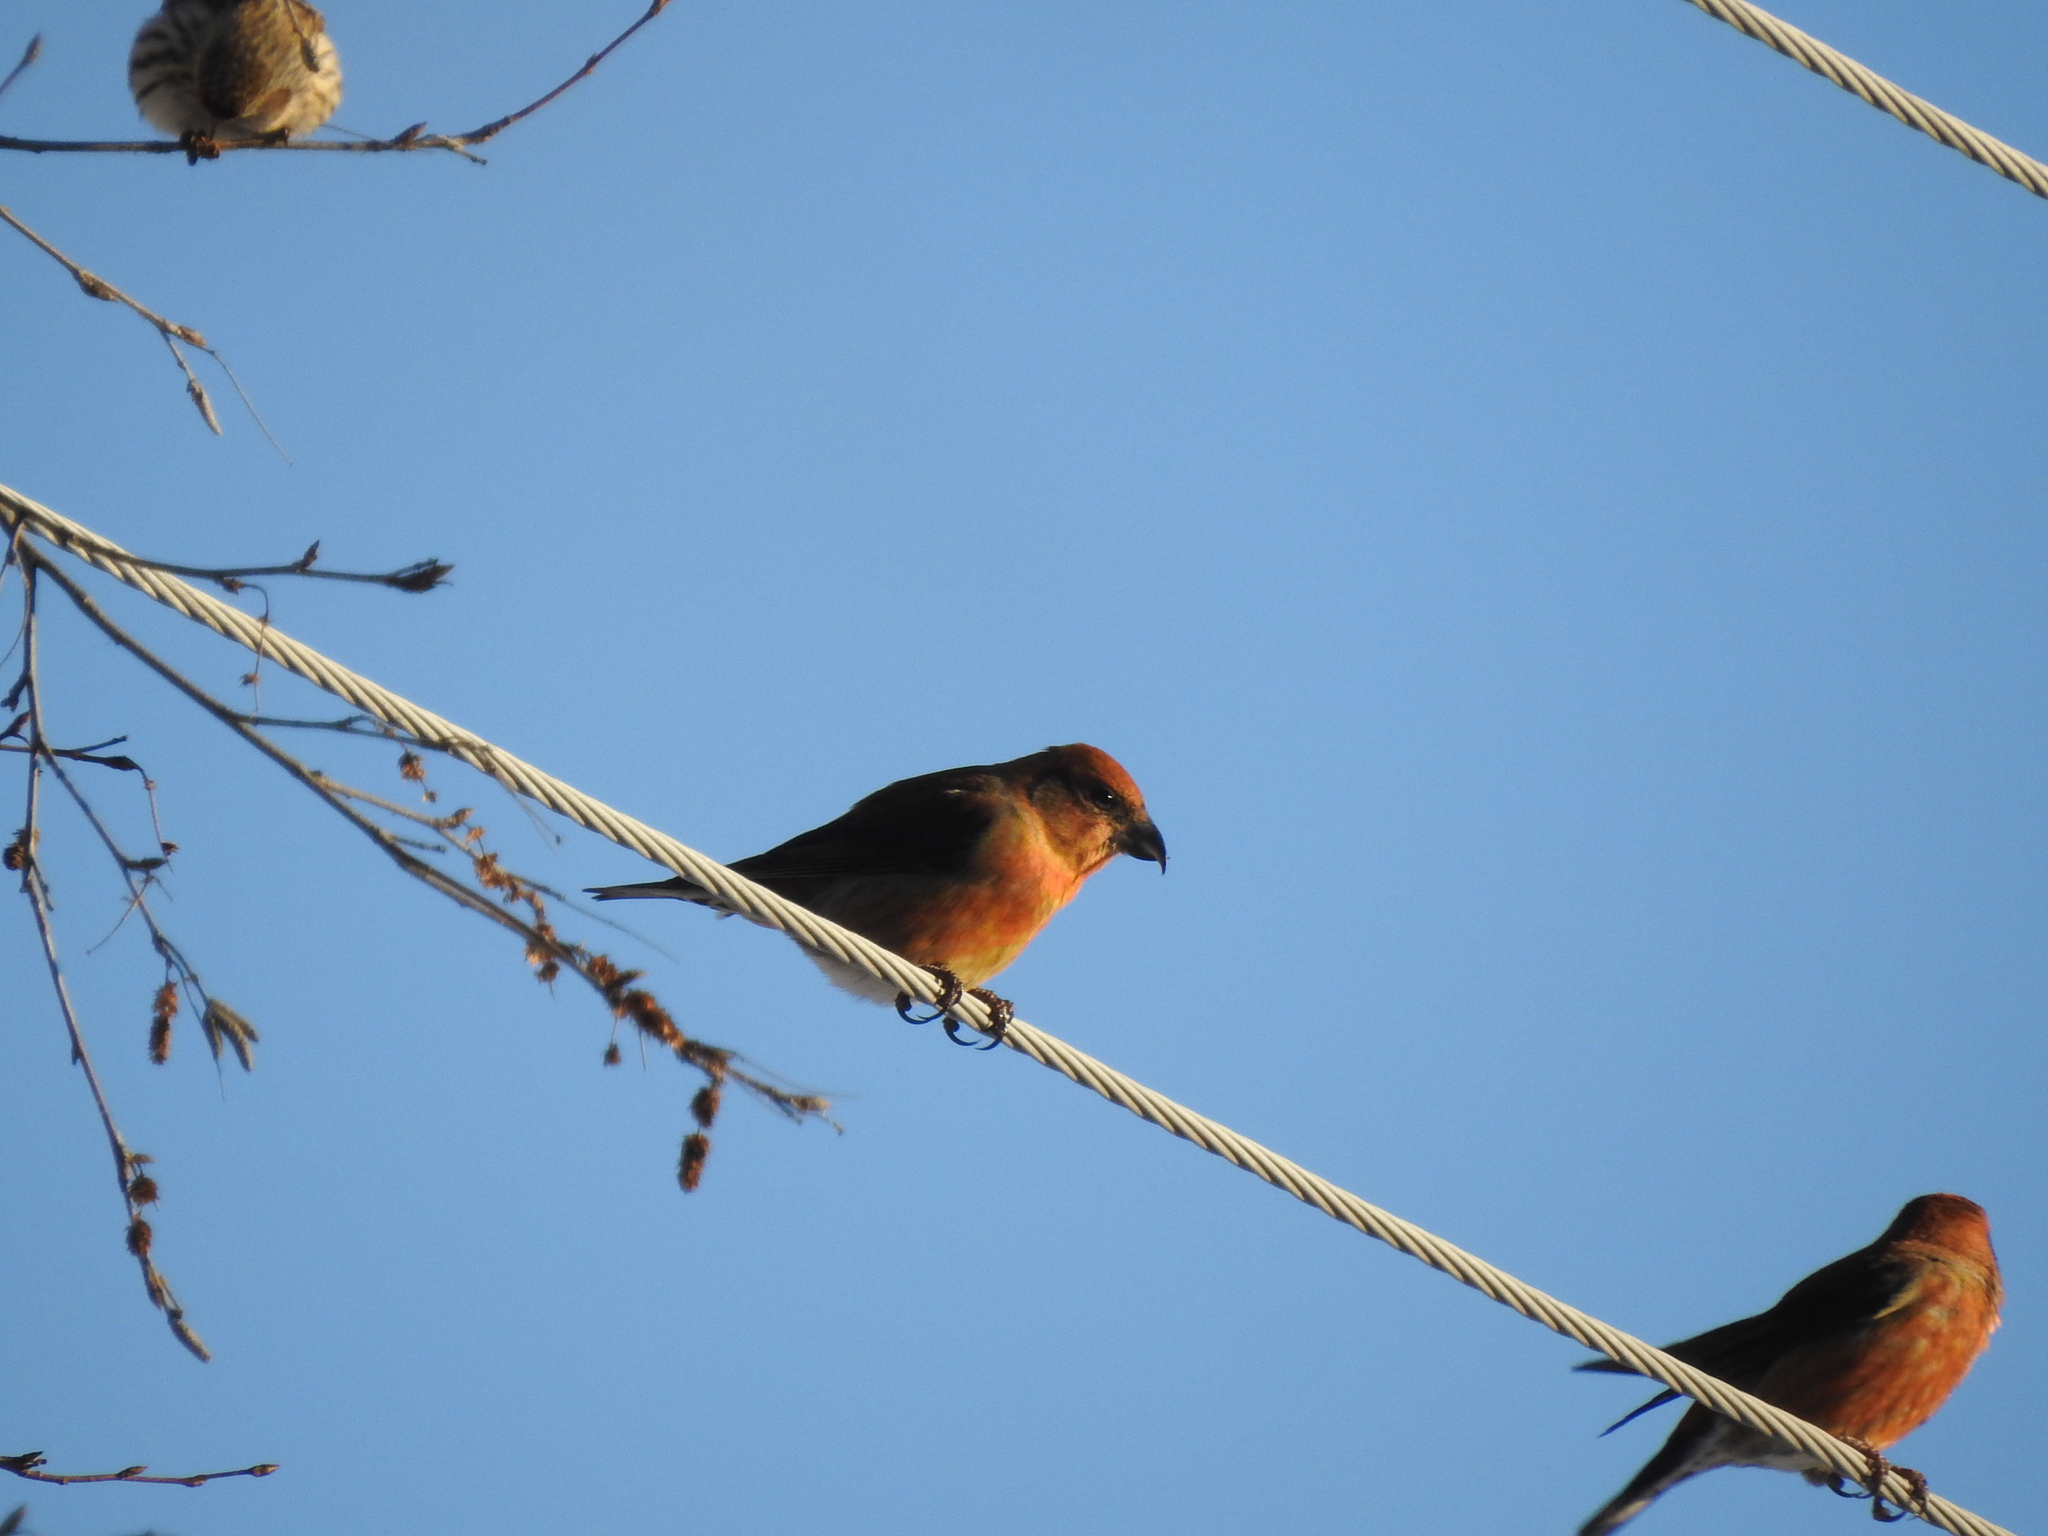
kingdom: Animalia
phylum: Chordata
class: Aves
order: Passeriformes
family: Fringillidae
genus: Loxia
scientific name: Loxia curvirostra
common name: Red crossbill
